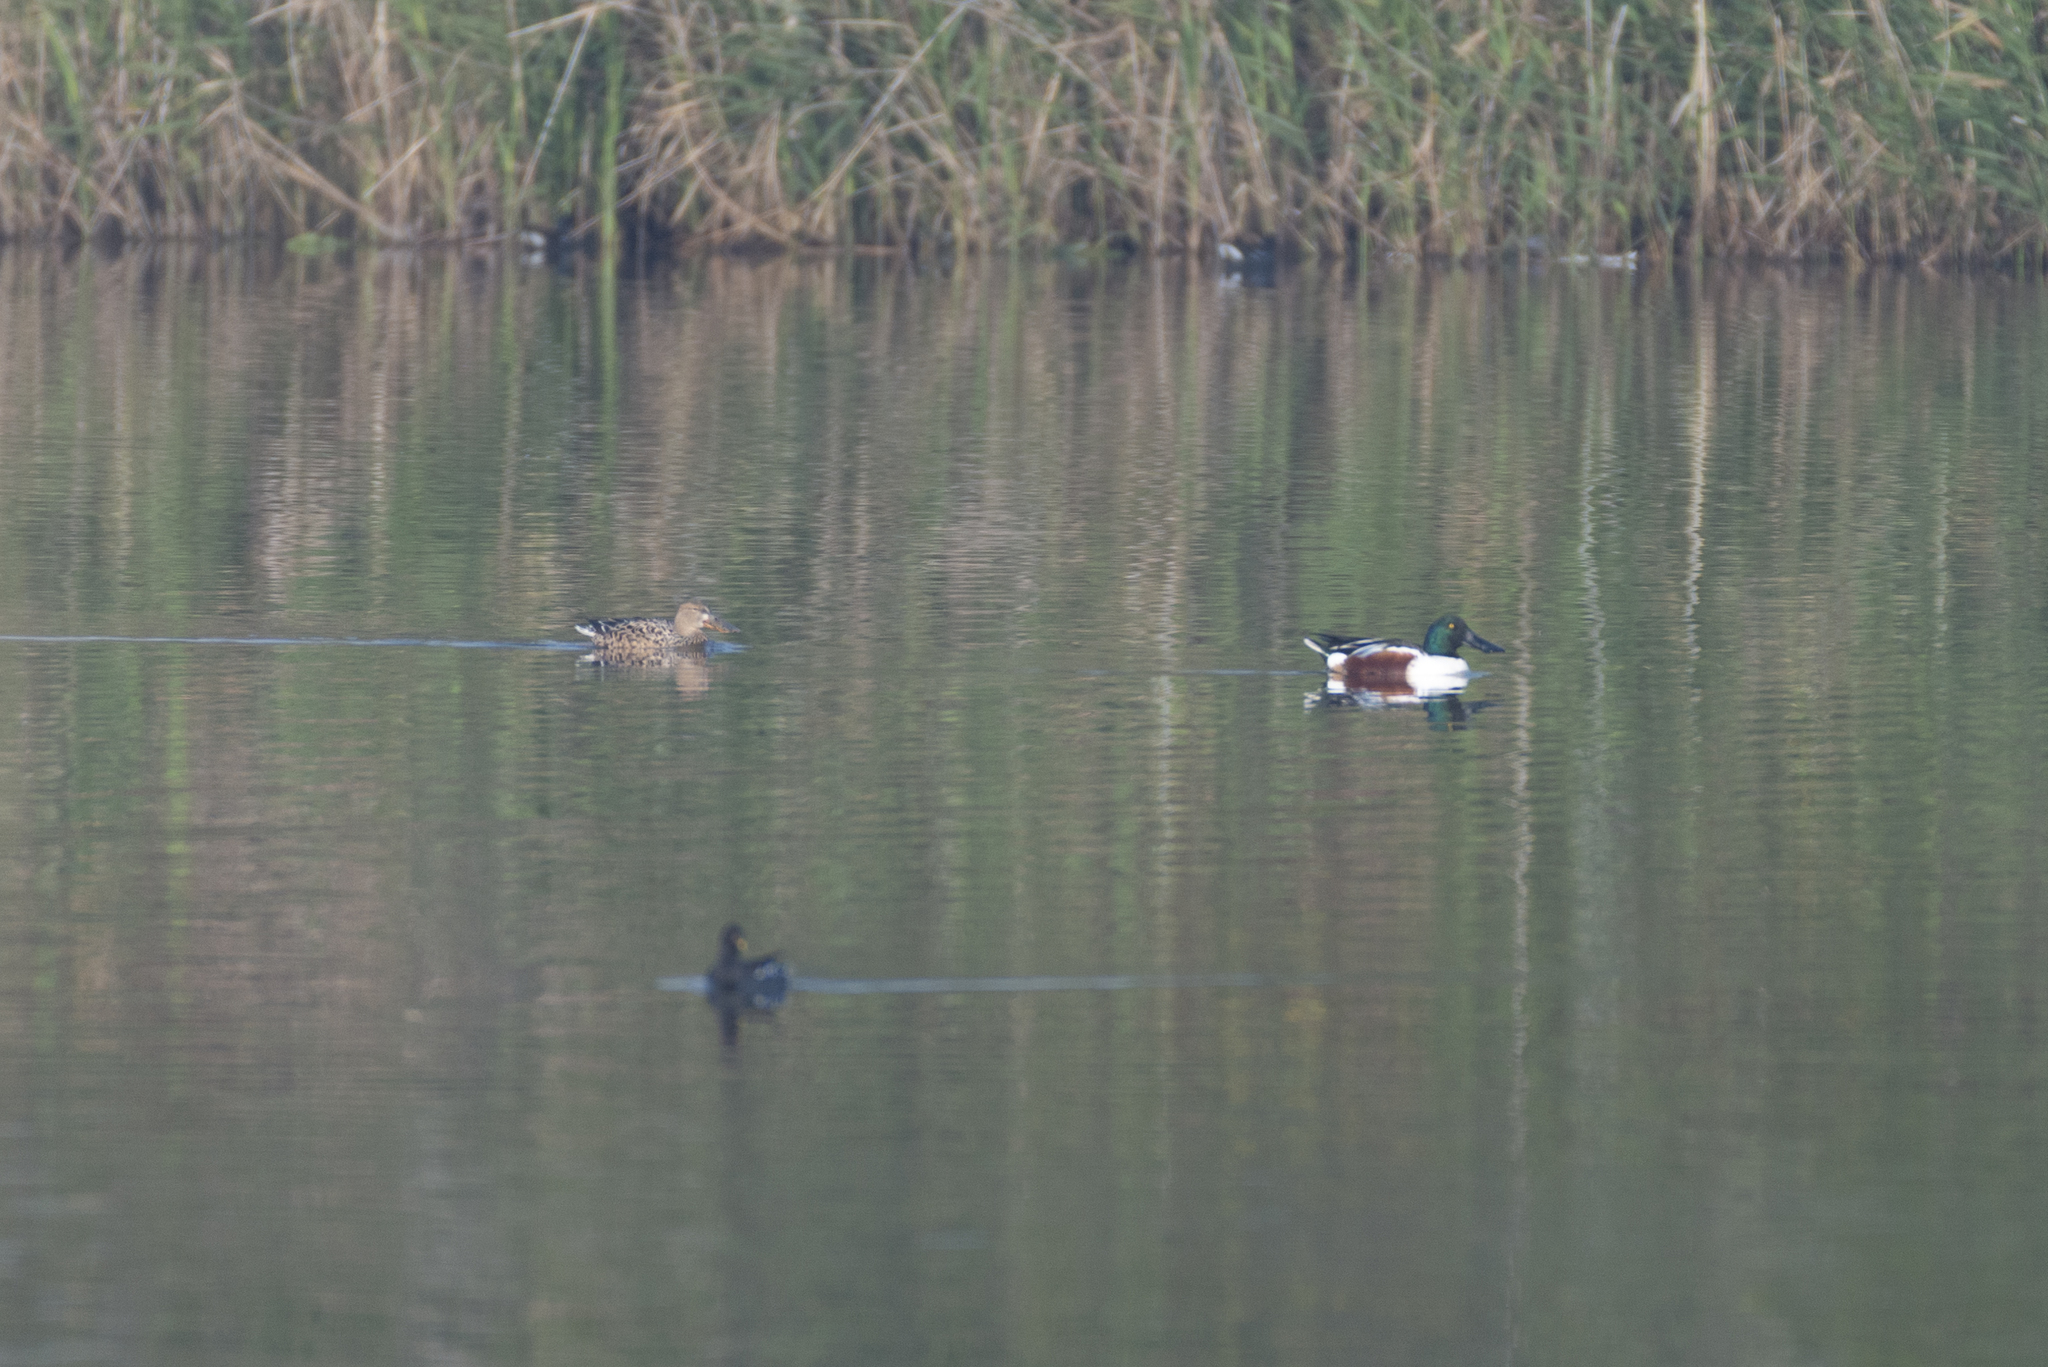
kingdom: Animalia
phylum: Chordata
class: Aves
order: Anseriformes
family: Anatidae
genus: Spatula
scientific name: Spatula clypeata
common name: Northern shoveler
